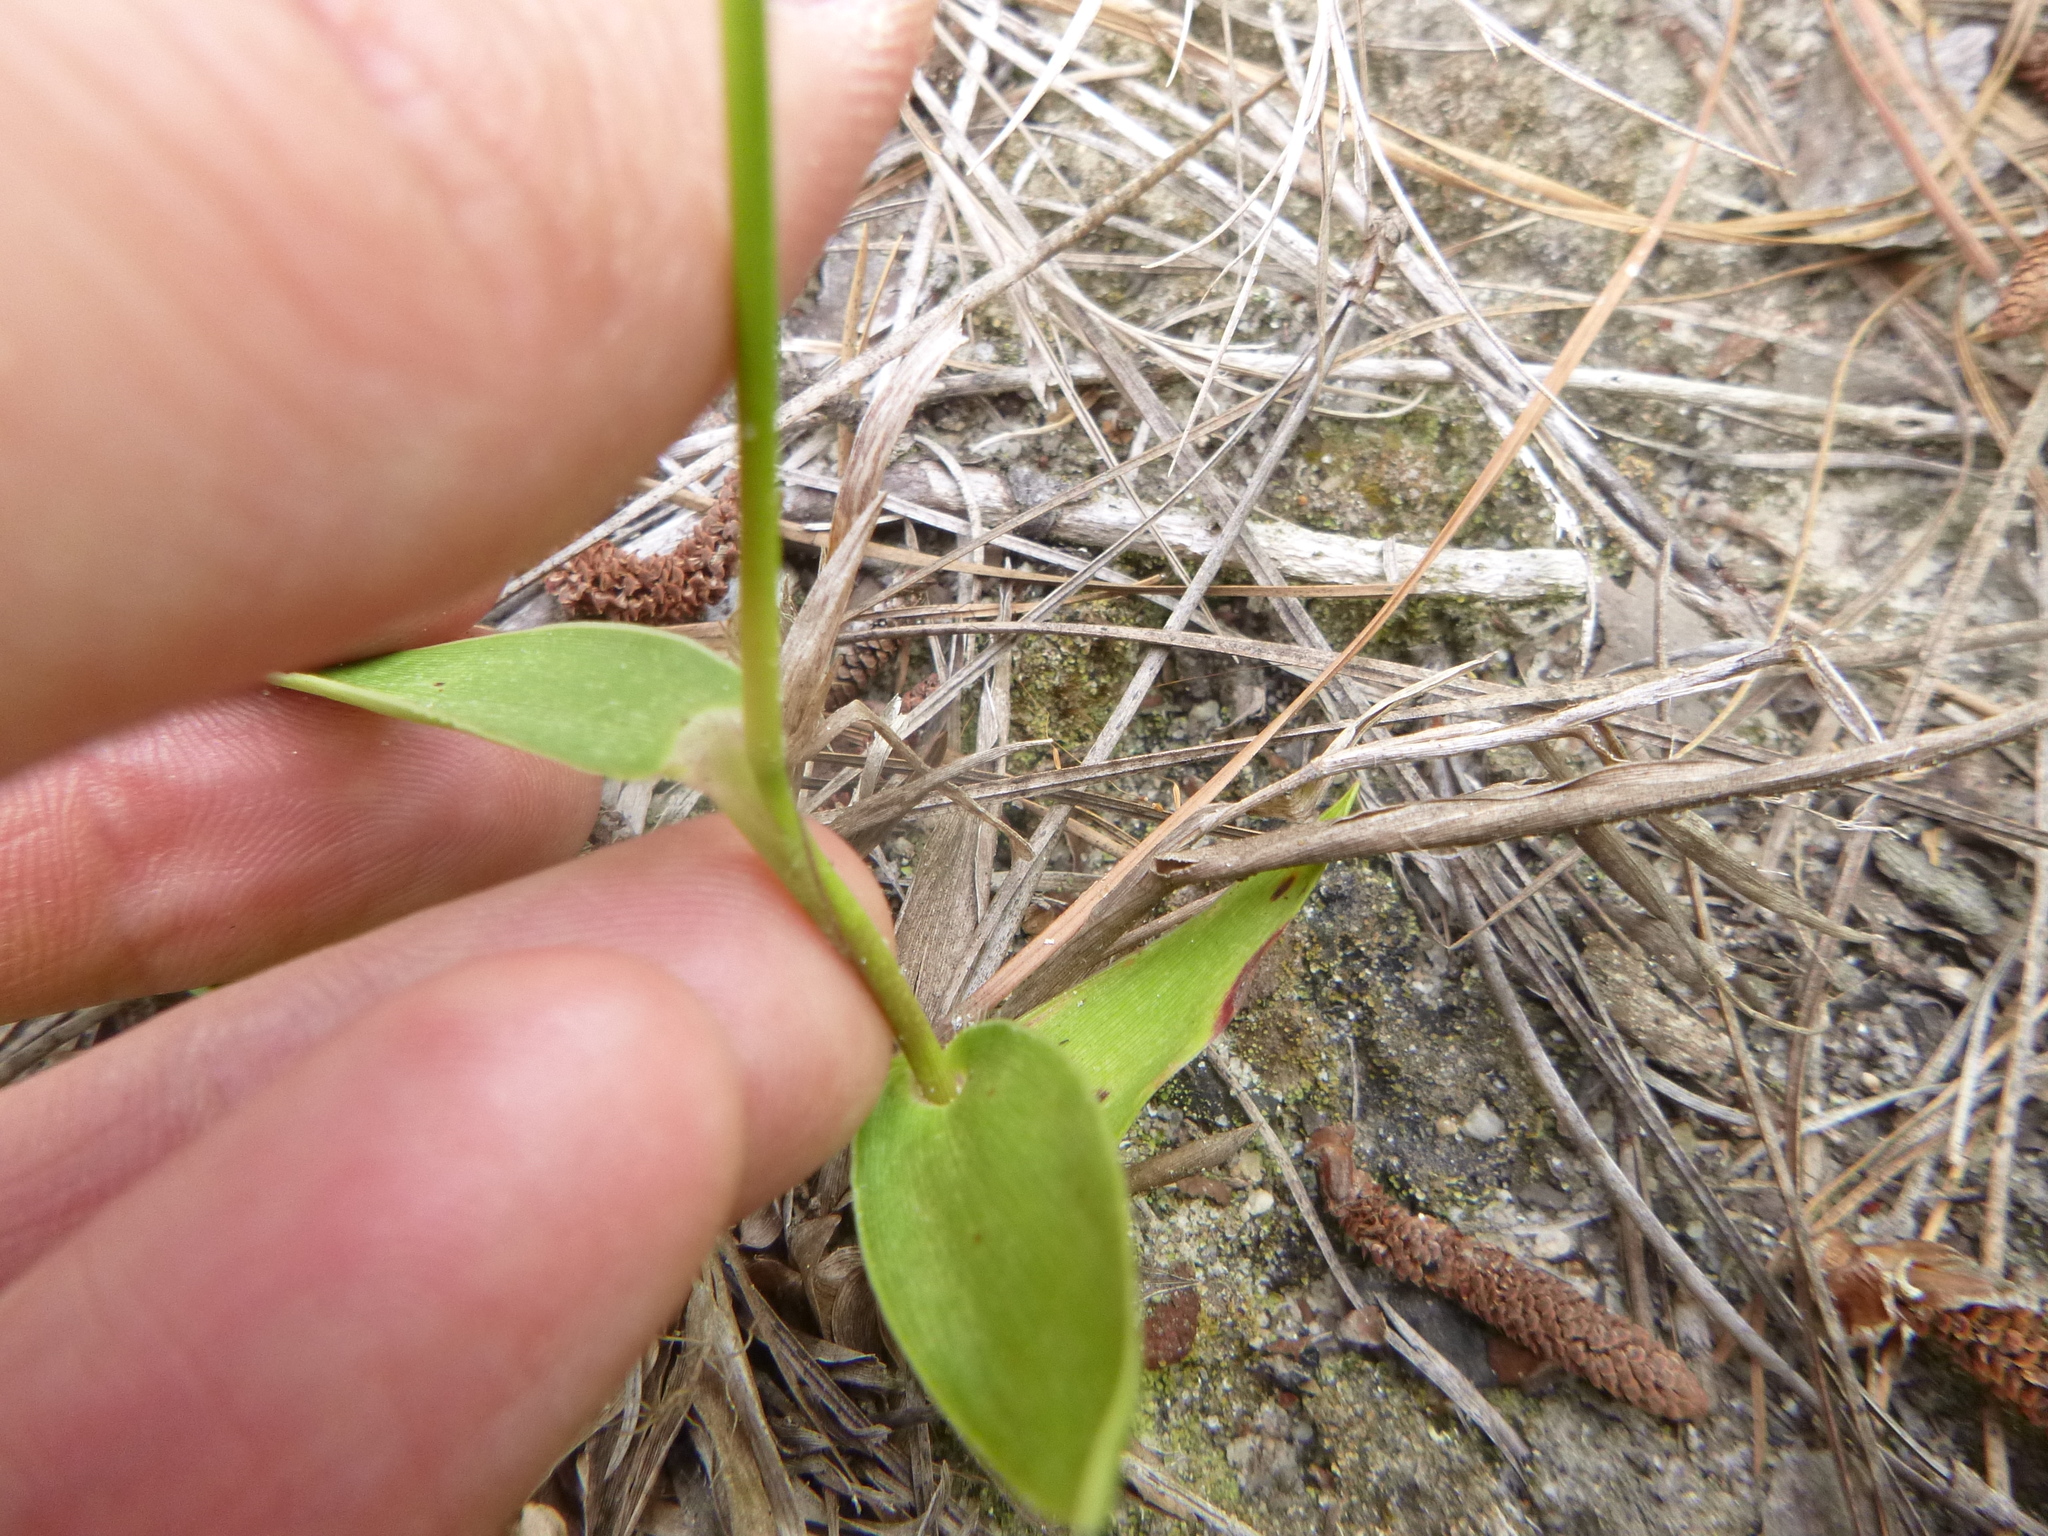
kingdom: Plantae
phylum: Tracheophyta
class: Liliopsida
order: Poales
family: Poaceae
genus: Dichanthelium
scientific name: Dichanthelium sphaerocarpon
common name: Round-fruited panicgrass
